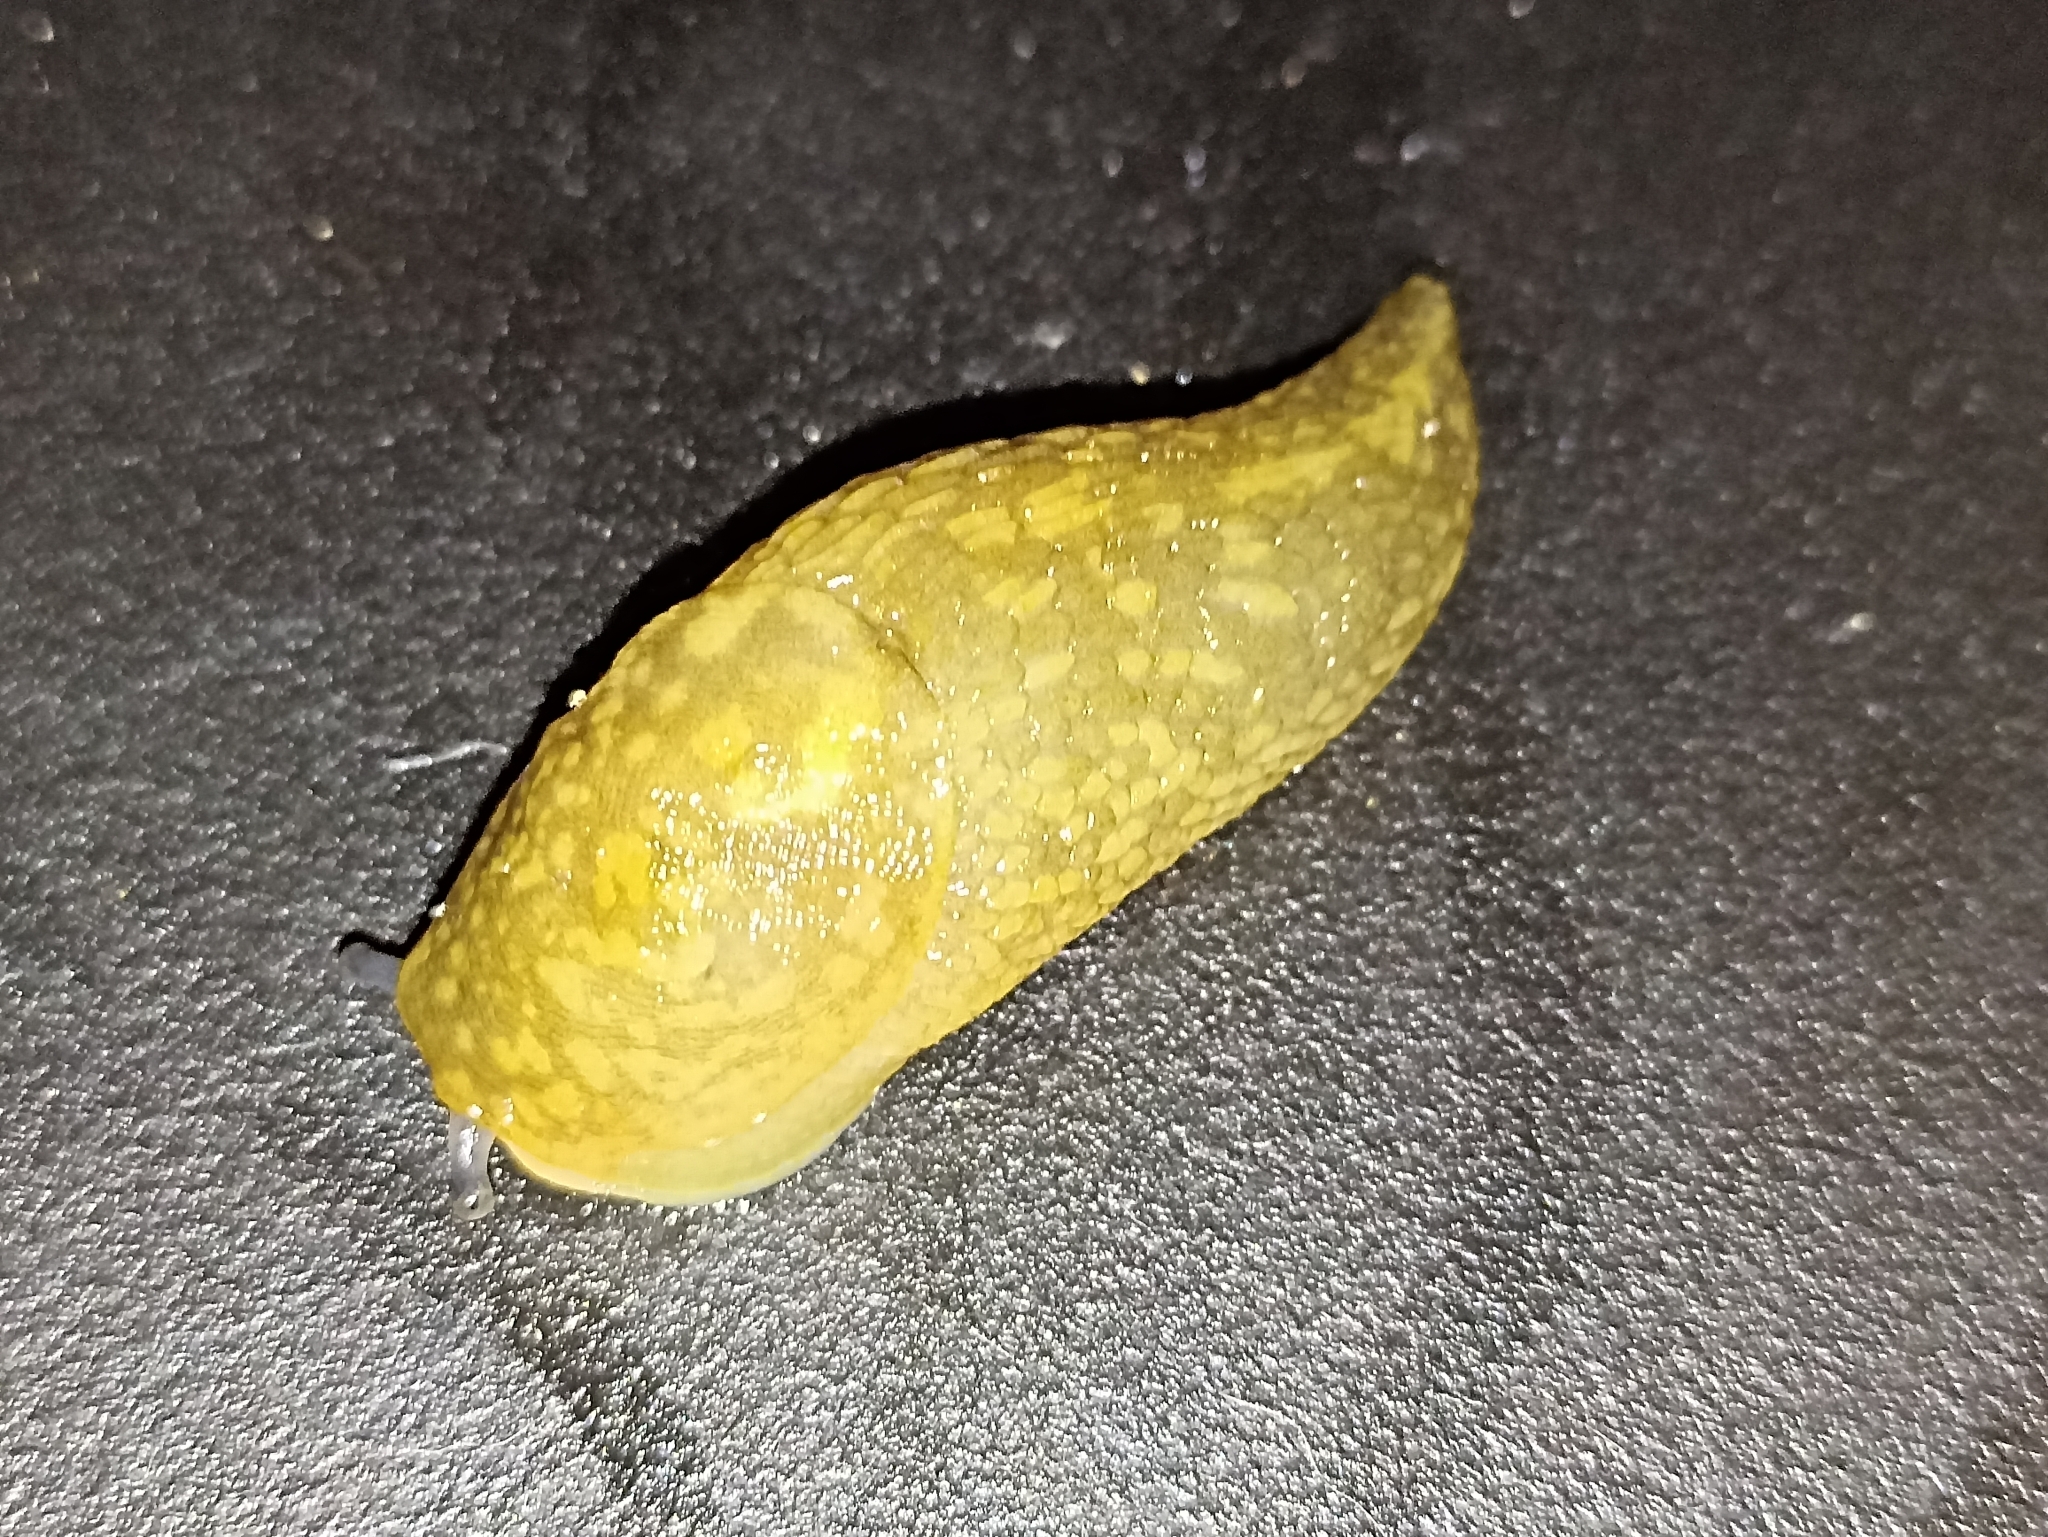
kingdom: Animalia
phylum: Mollusca
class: Gastropoda
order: Stylommatophora
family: Limacidae
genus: Limacus
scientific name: Limacus flavus
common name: Yellow gardenslug
